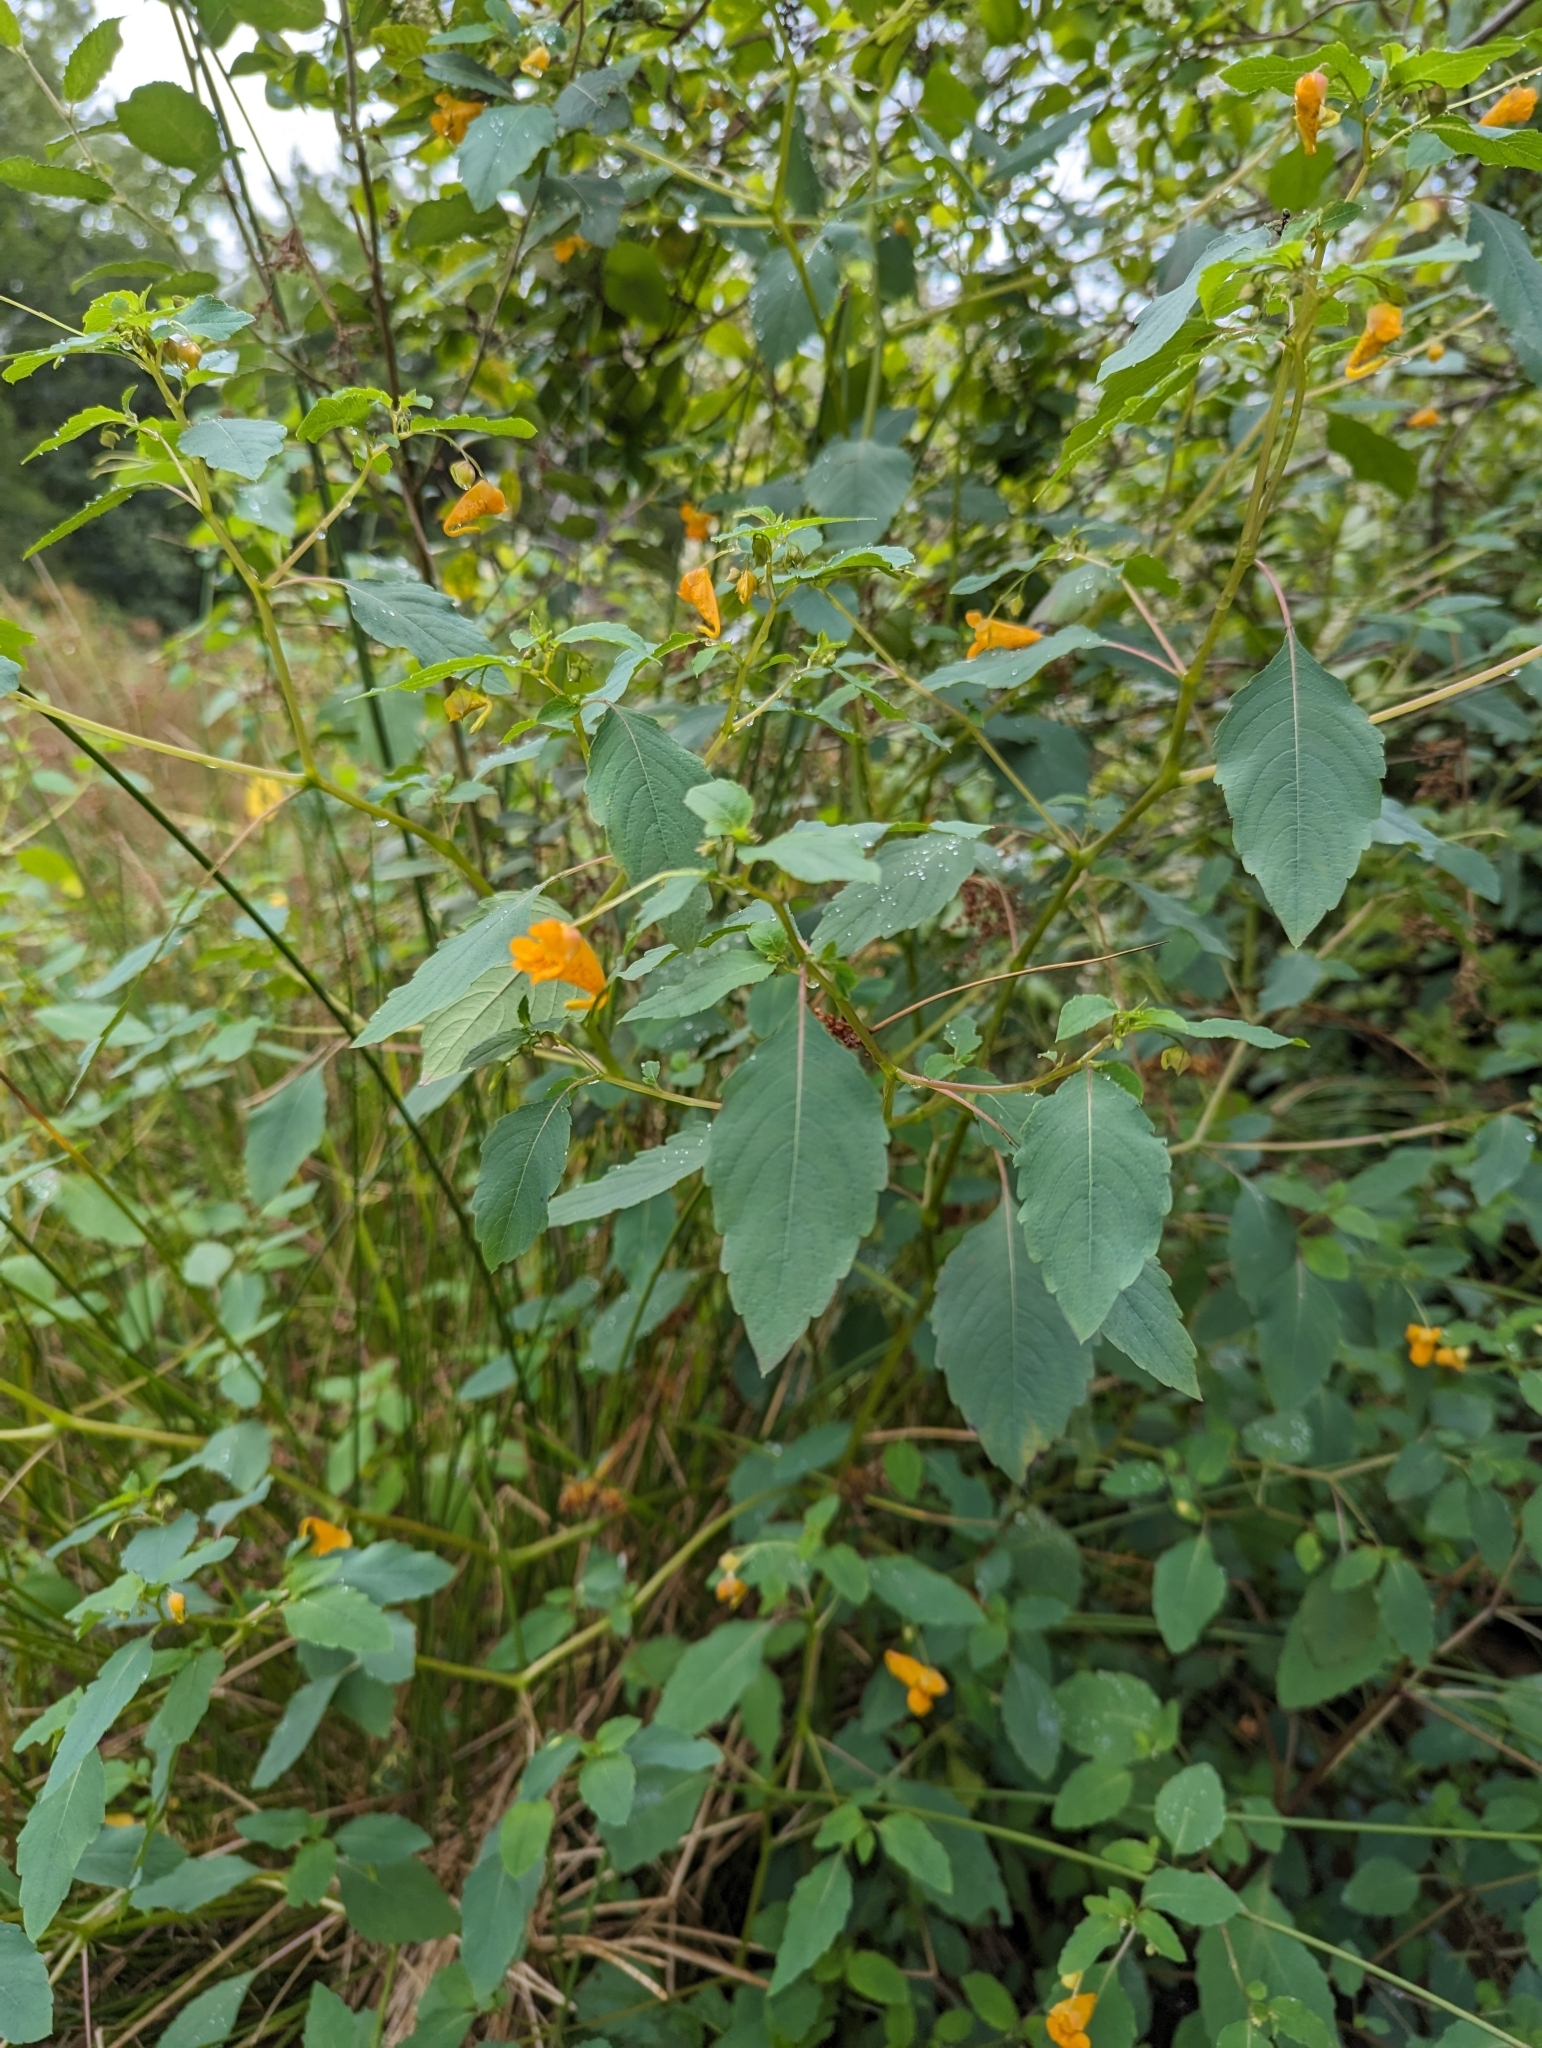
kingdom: Plantae
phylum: Tracheophyta
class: Magnoliopsida
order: Ericales
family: Balsaminaceae
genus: Impatiens
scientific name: Impatiens capensis
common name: Orange balsam
